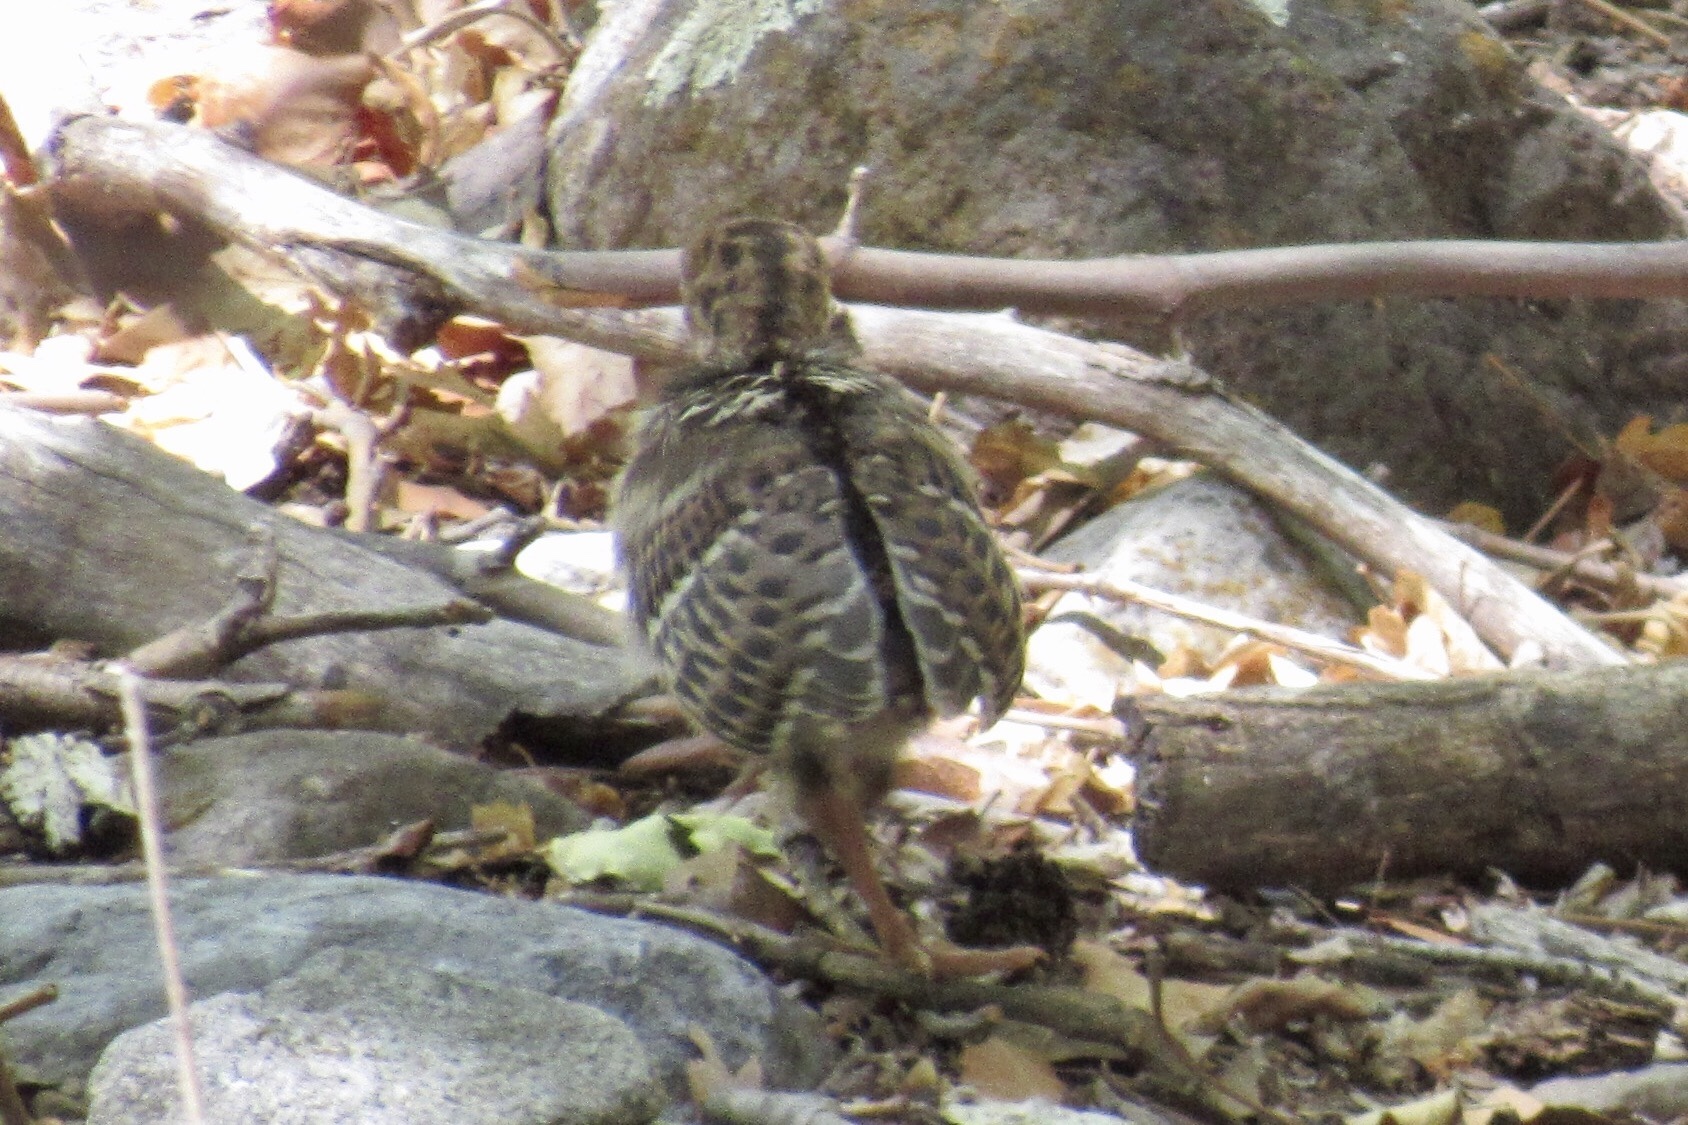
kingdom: Animalia
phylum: Chordata
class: Aves
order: Galliformes
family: Phasianidae
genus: Meleagris
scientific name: Meleagris gallopavo
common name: Wild turkey
